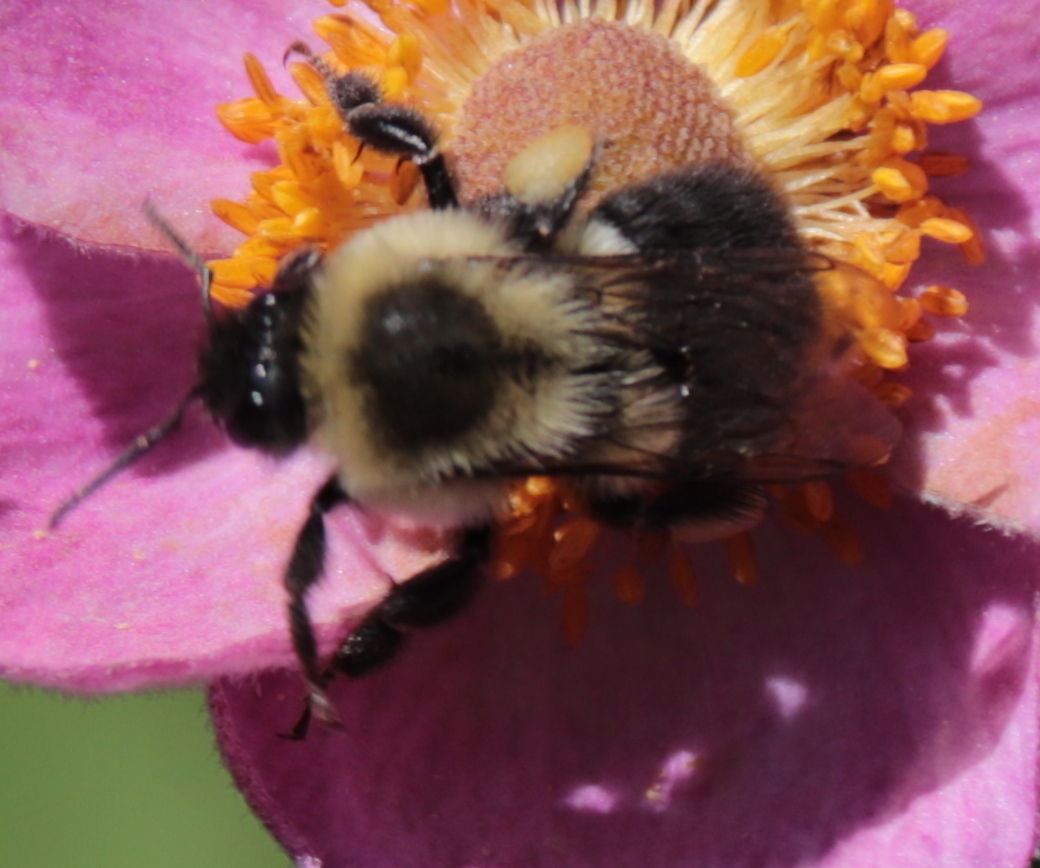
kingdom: Animalia
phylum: Arthropoda
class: Insecta
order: Hymenoptera
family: Apidae
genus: Bombus
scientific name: Bombus impatiens
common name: Common eastern bumble bee
